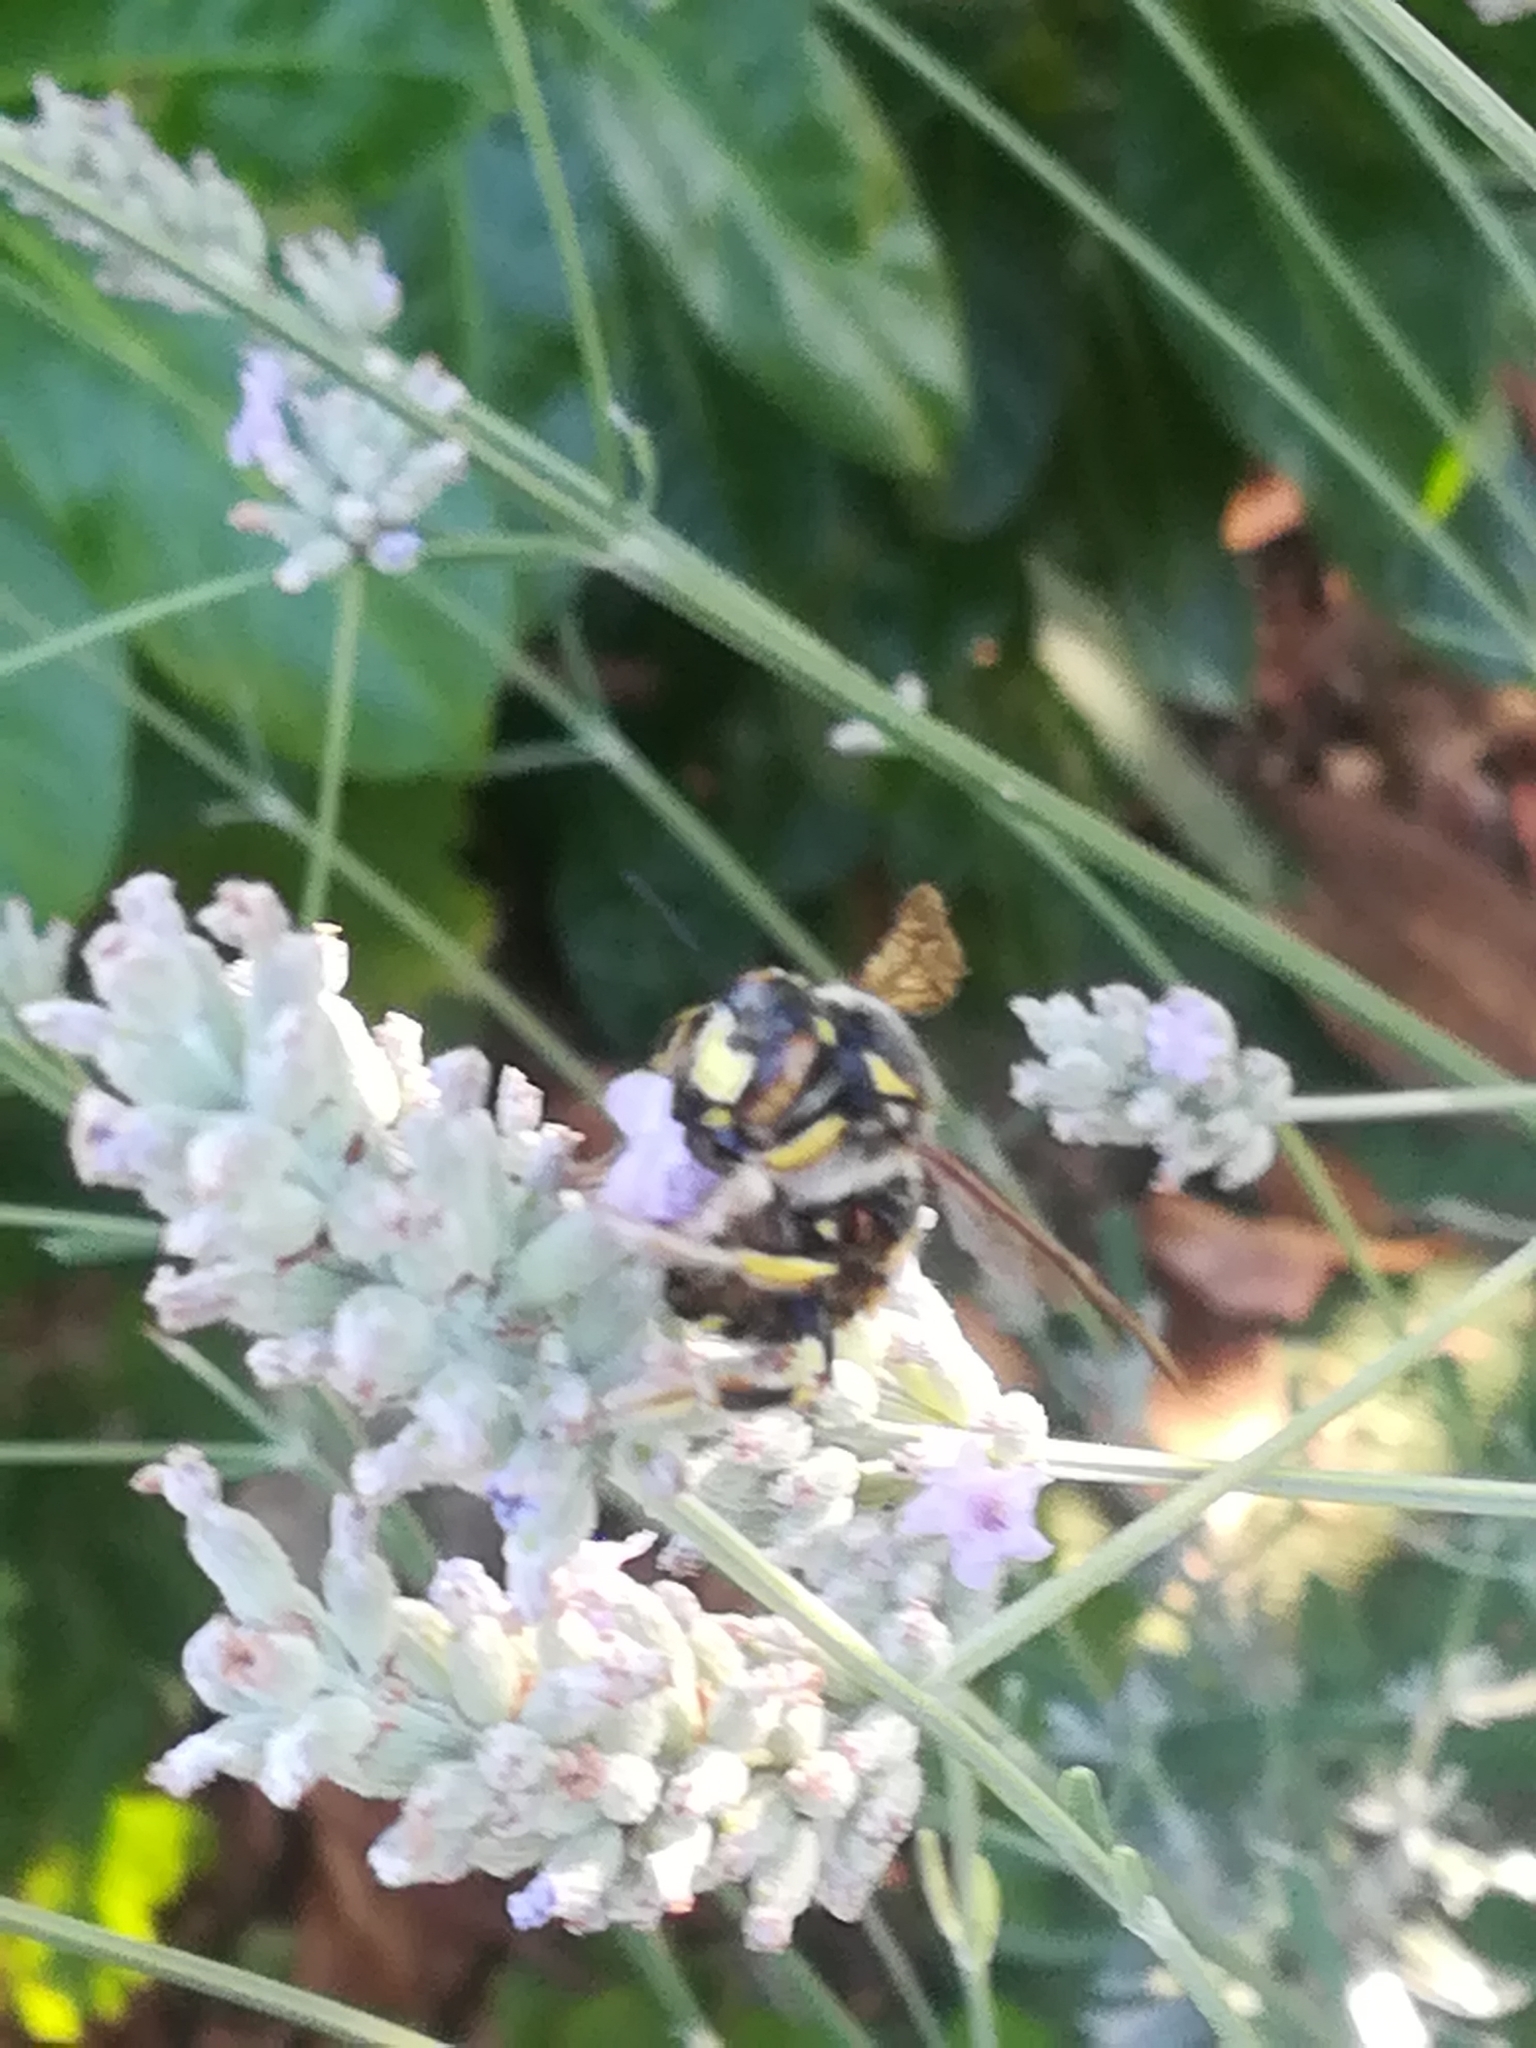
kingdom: Animalia
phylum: Arthropoda
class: Insecta
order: Hymenoptera
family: Megachilidae
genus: Anthidium
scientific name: Anthidium florentinum
